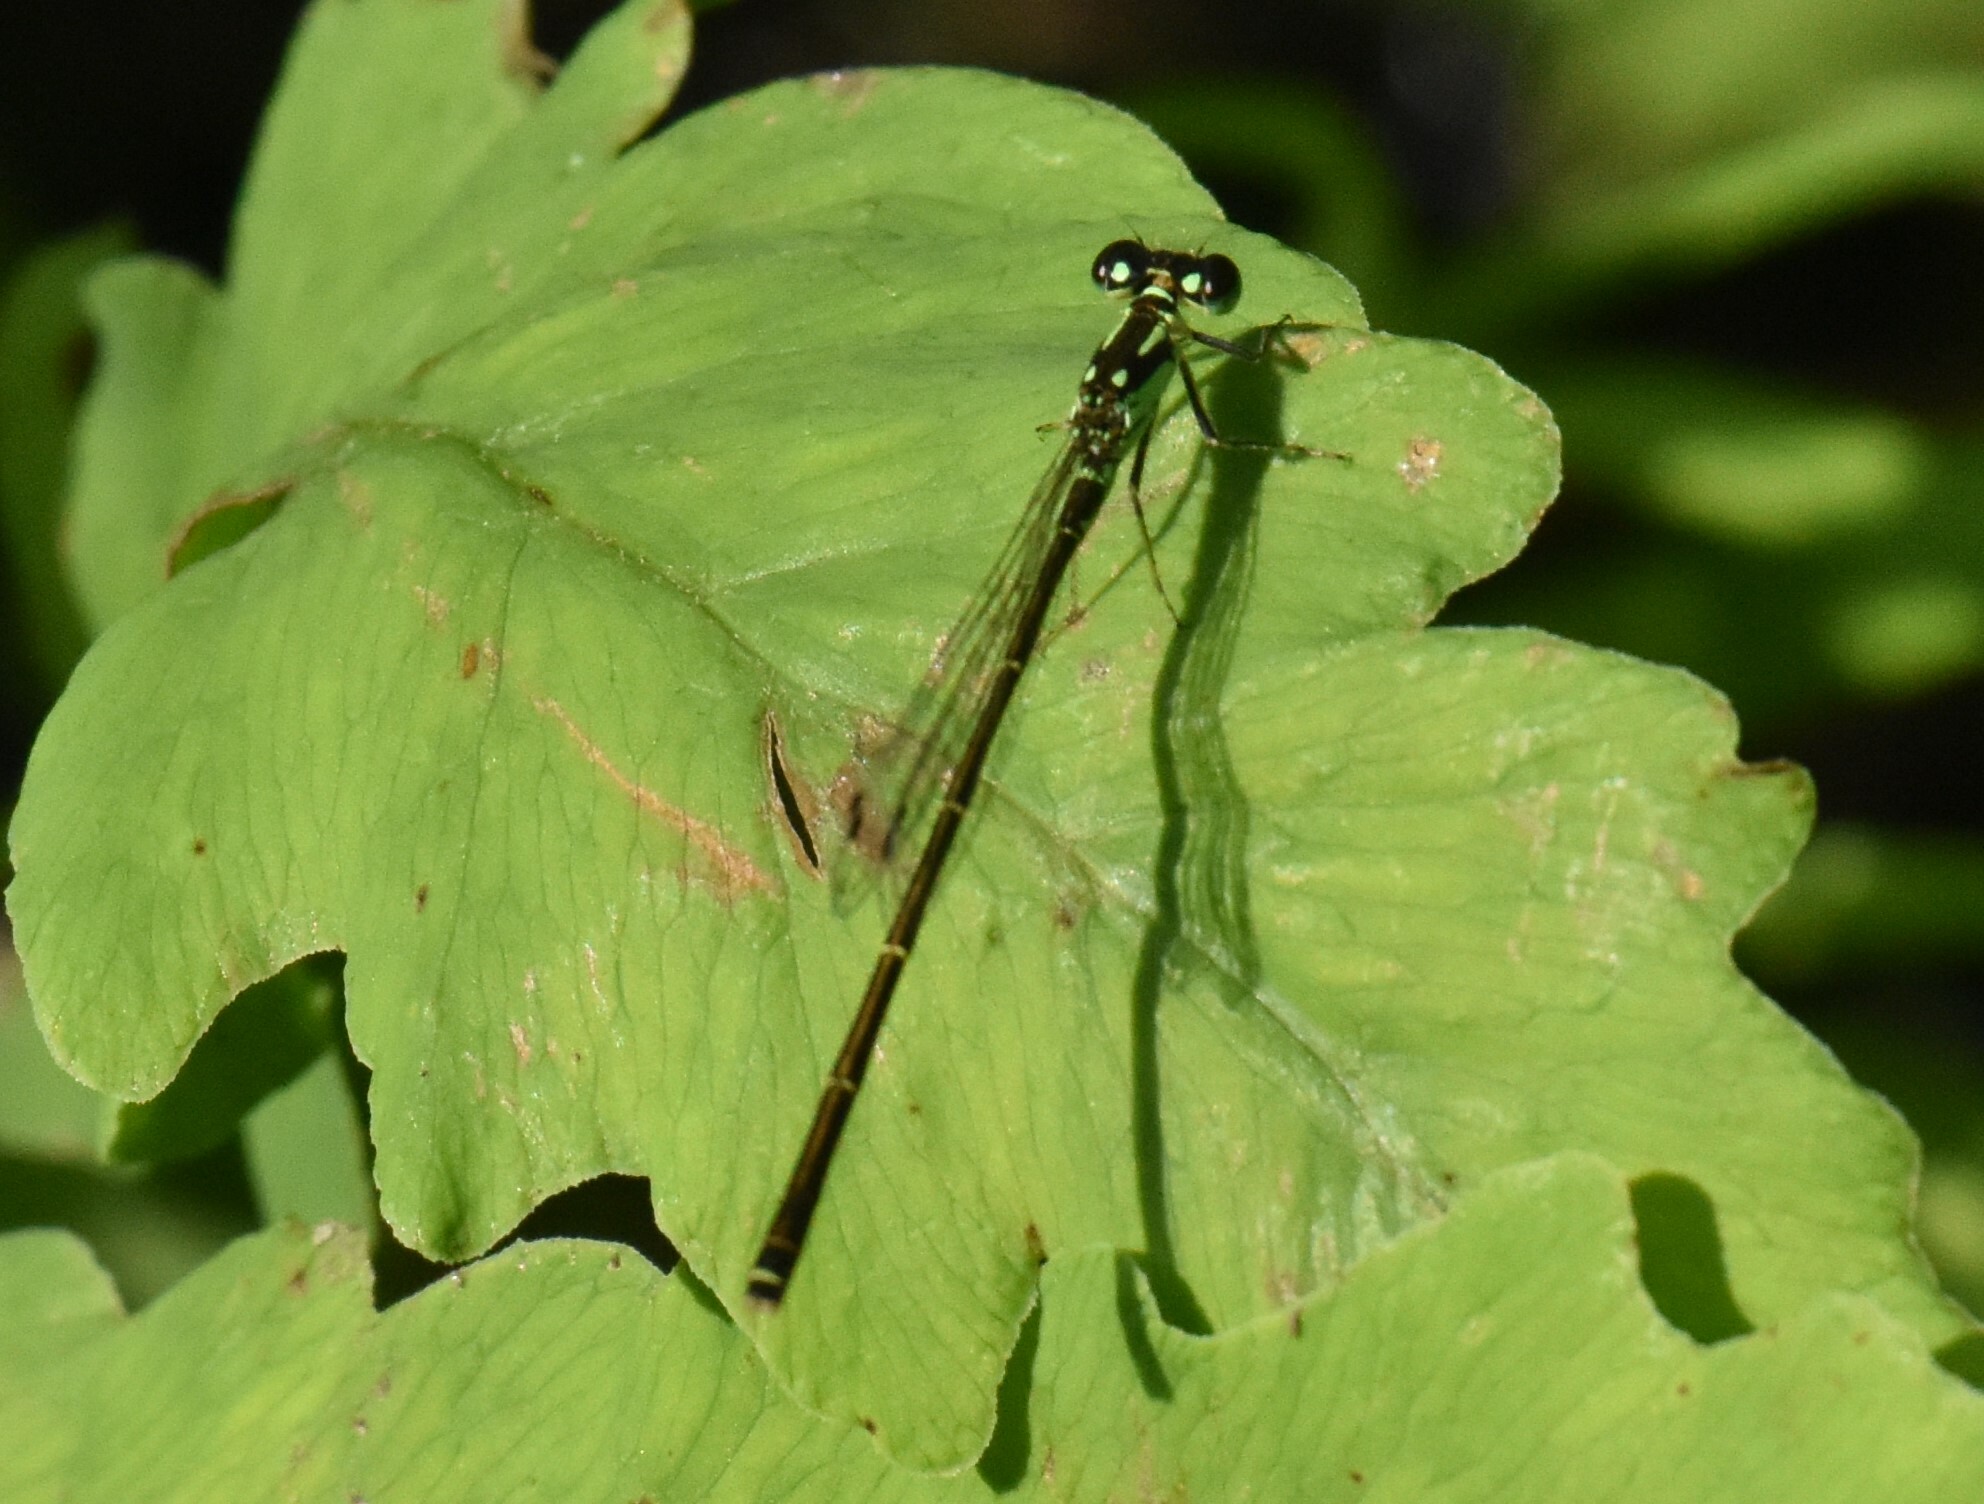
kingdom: Animalia
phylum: Arthropoda
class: Insecta
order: Odonata
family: Coenagrionidae
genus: Ischnura
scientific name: Ischnura posita
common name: Fragile forktail
